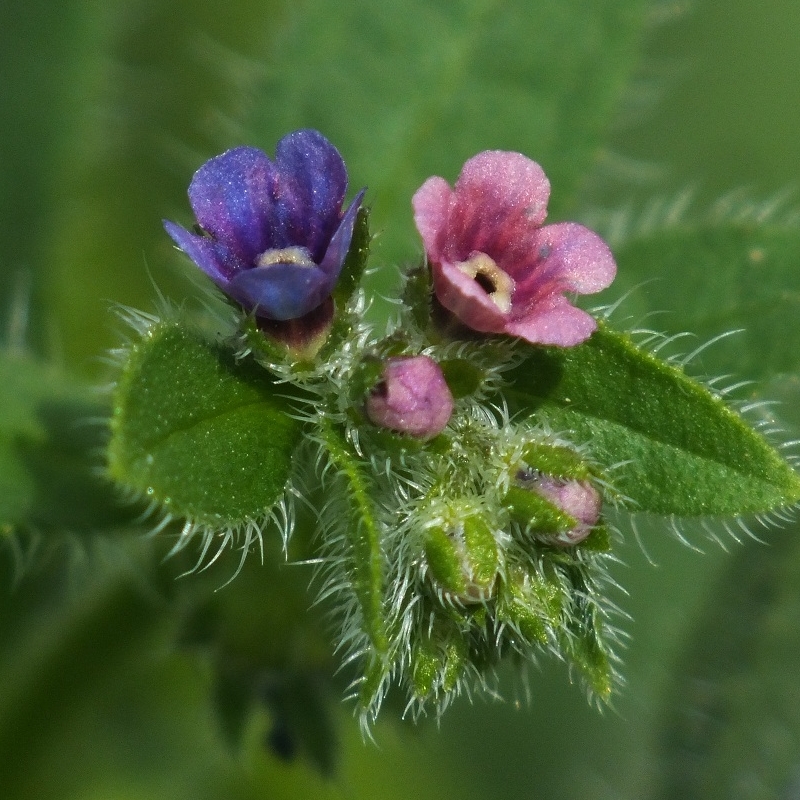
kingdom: Plantae
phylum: Tracheophyta
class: Magnoliopsida
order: Boraginales
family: Boraginaceae
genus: Asperugo
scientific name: Asperugo procumbens
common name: Madwort
